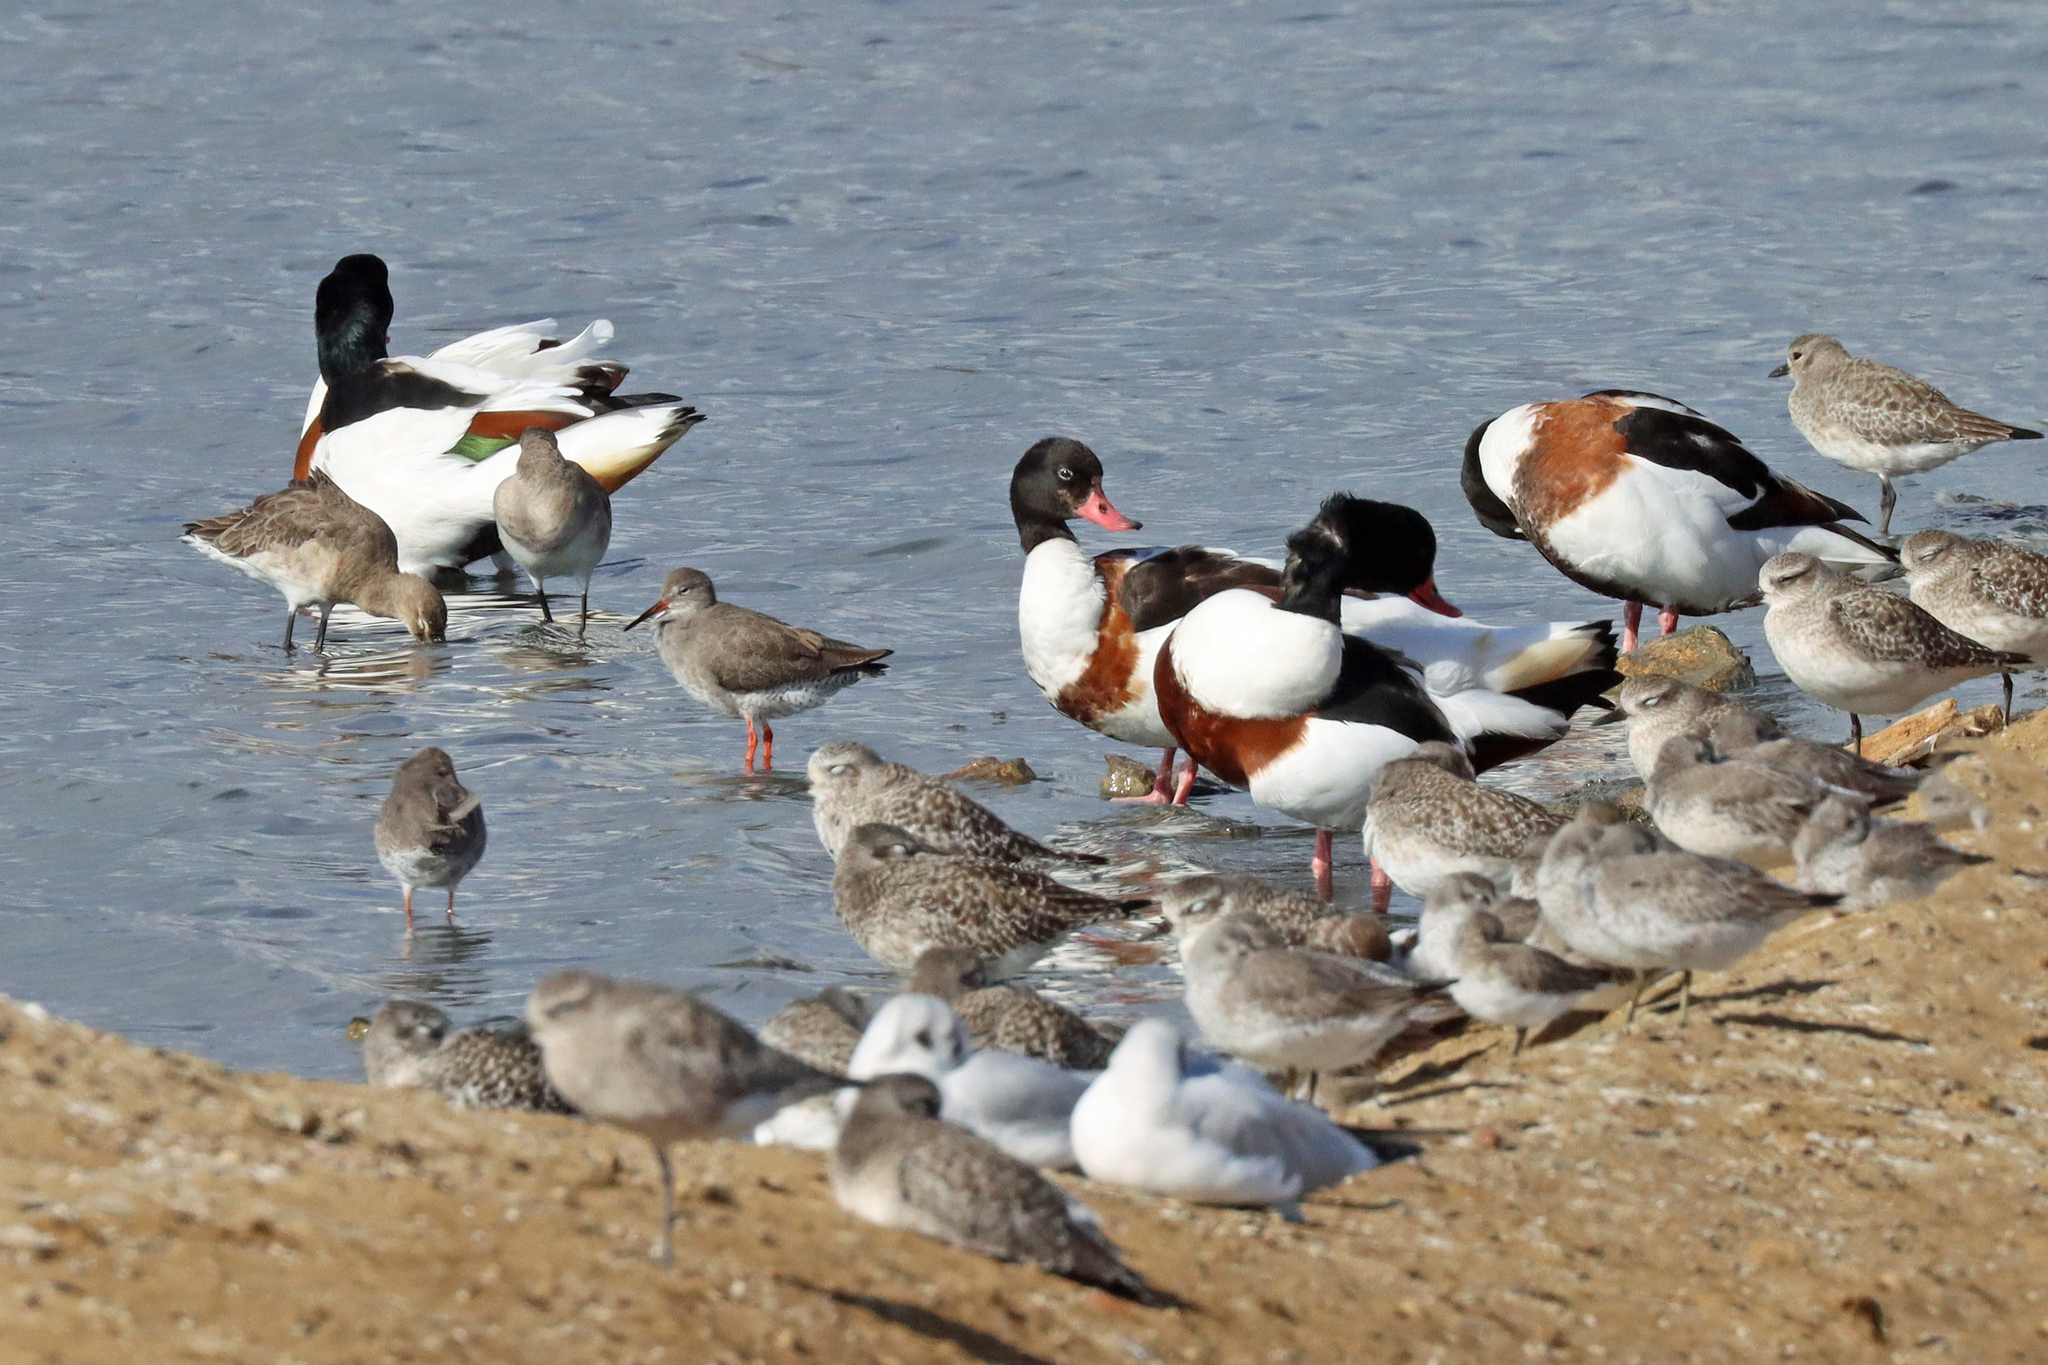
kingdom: Animalia
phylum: Chordata
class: Aves
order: Anseriformes
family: Anatidae
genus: Tadorna
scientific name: Tadorna tadorna
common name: Common shelduck
